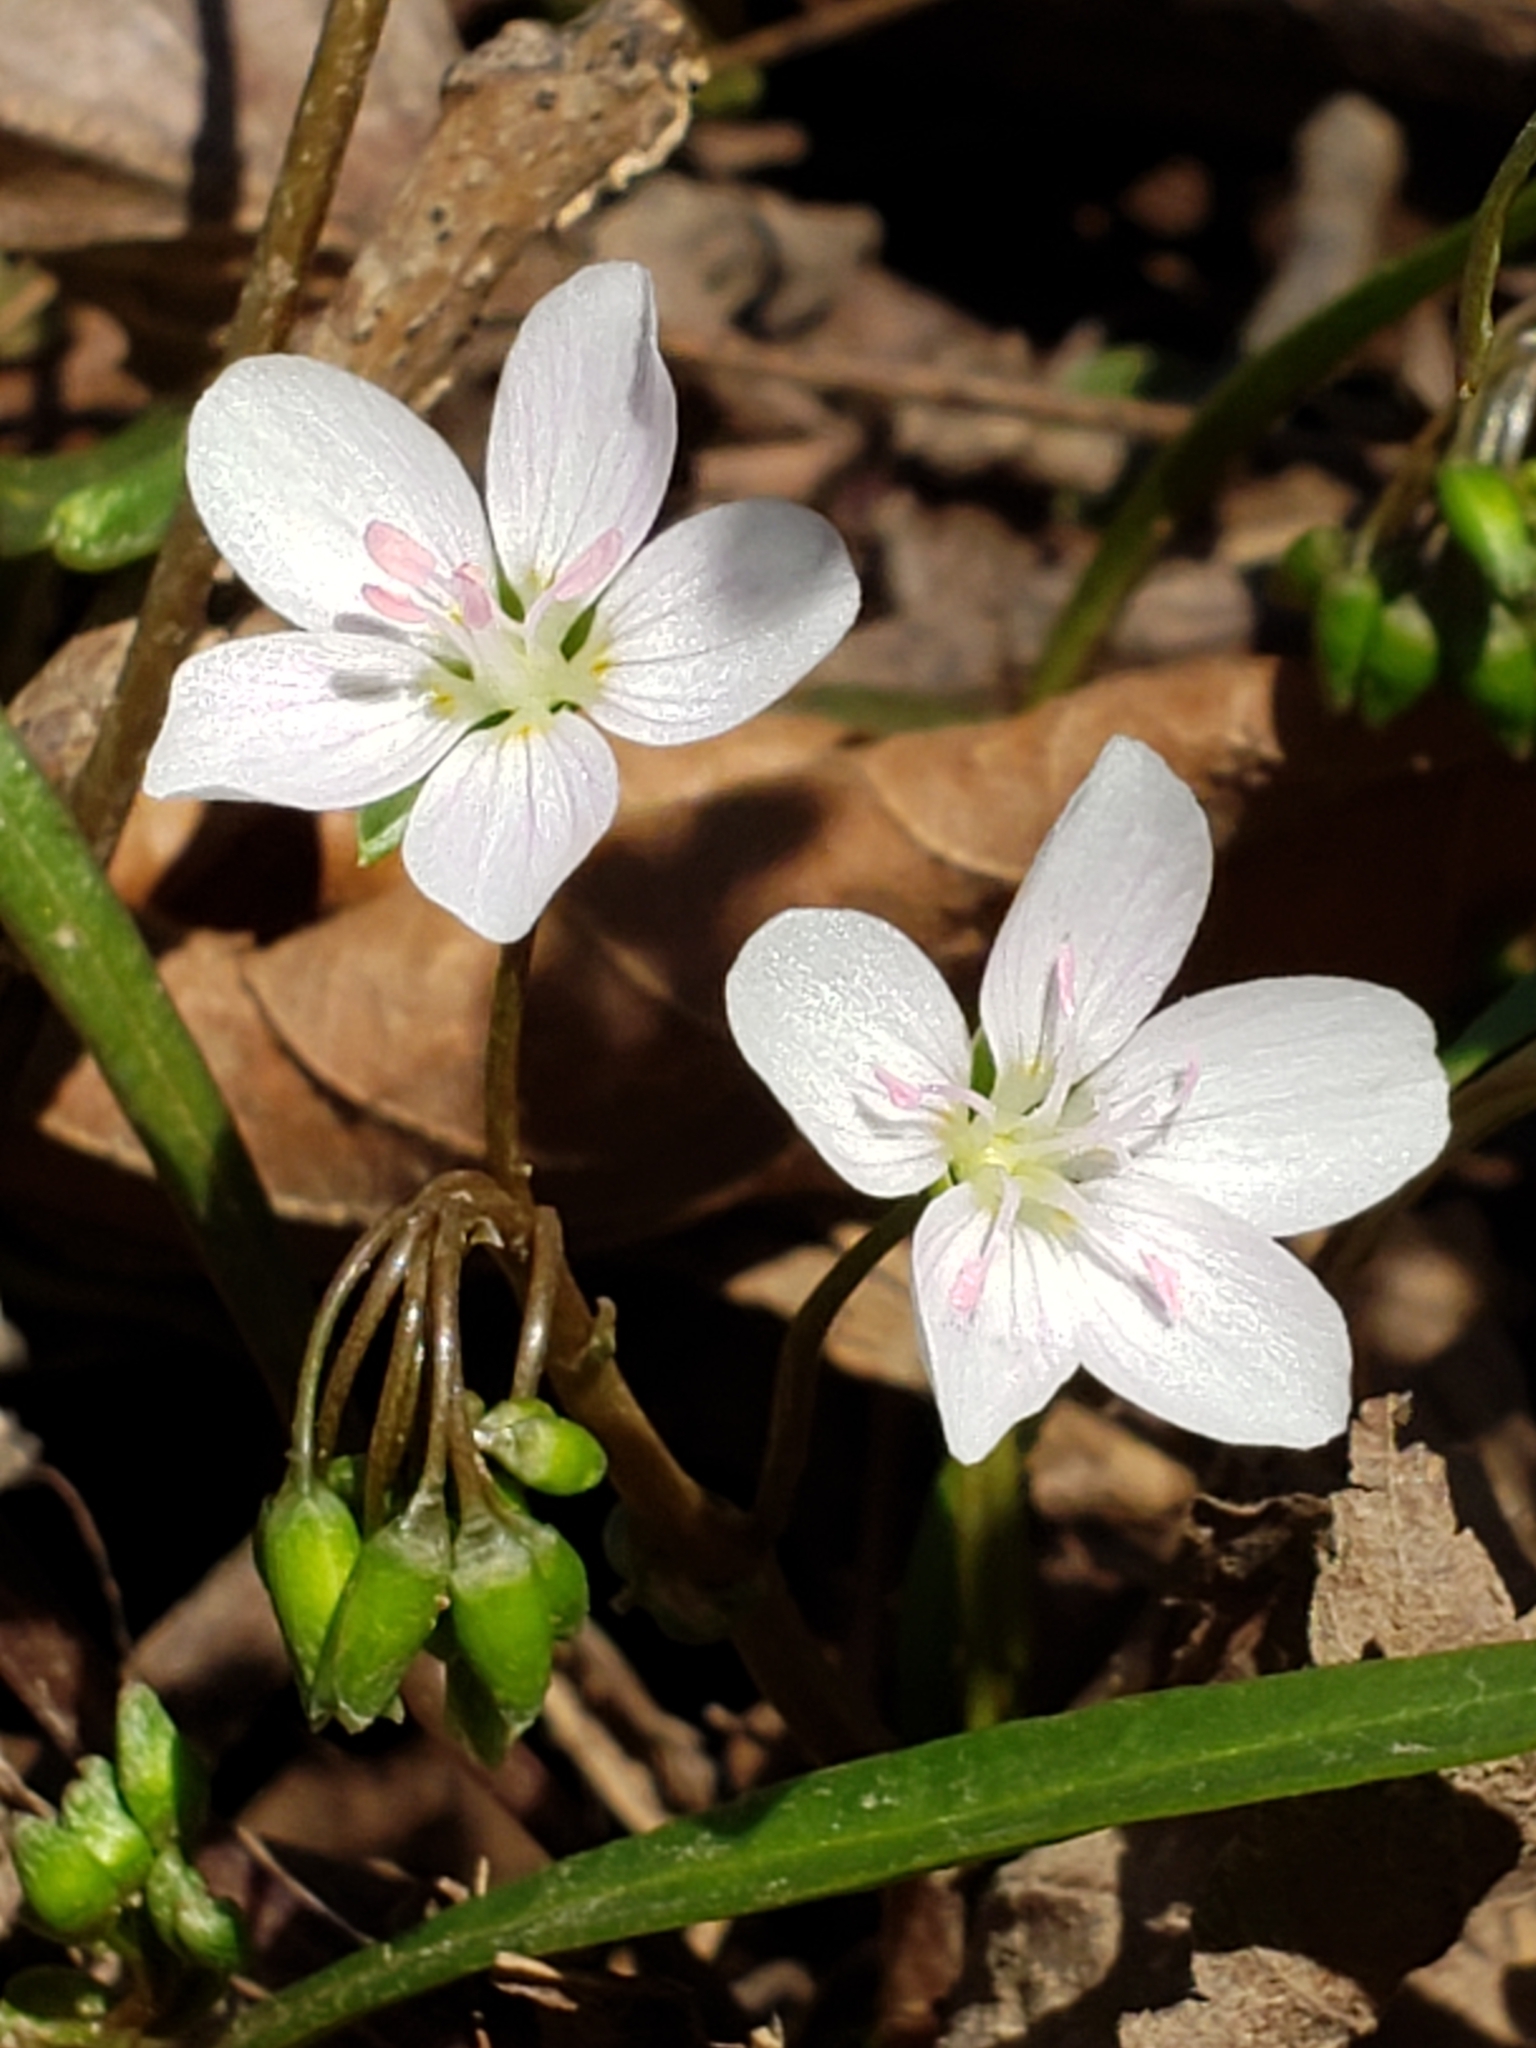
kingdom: Plantae
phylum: Tracheophyta
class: Magnoliopsida
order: Caryophyllales
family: Montiaceae
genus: Claytonia
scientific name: Claytonia virginica
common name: Virginia springbeauty
